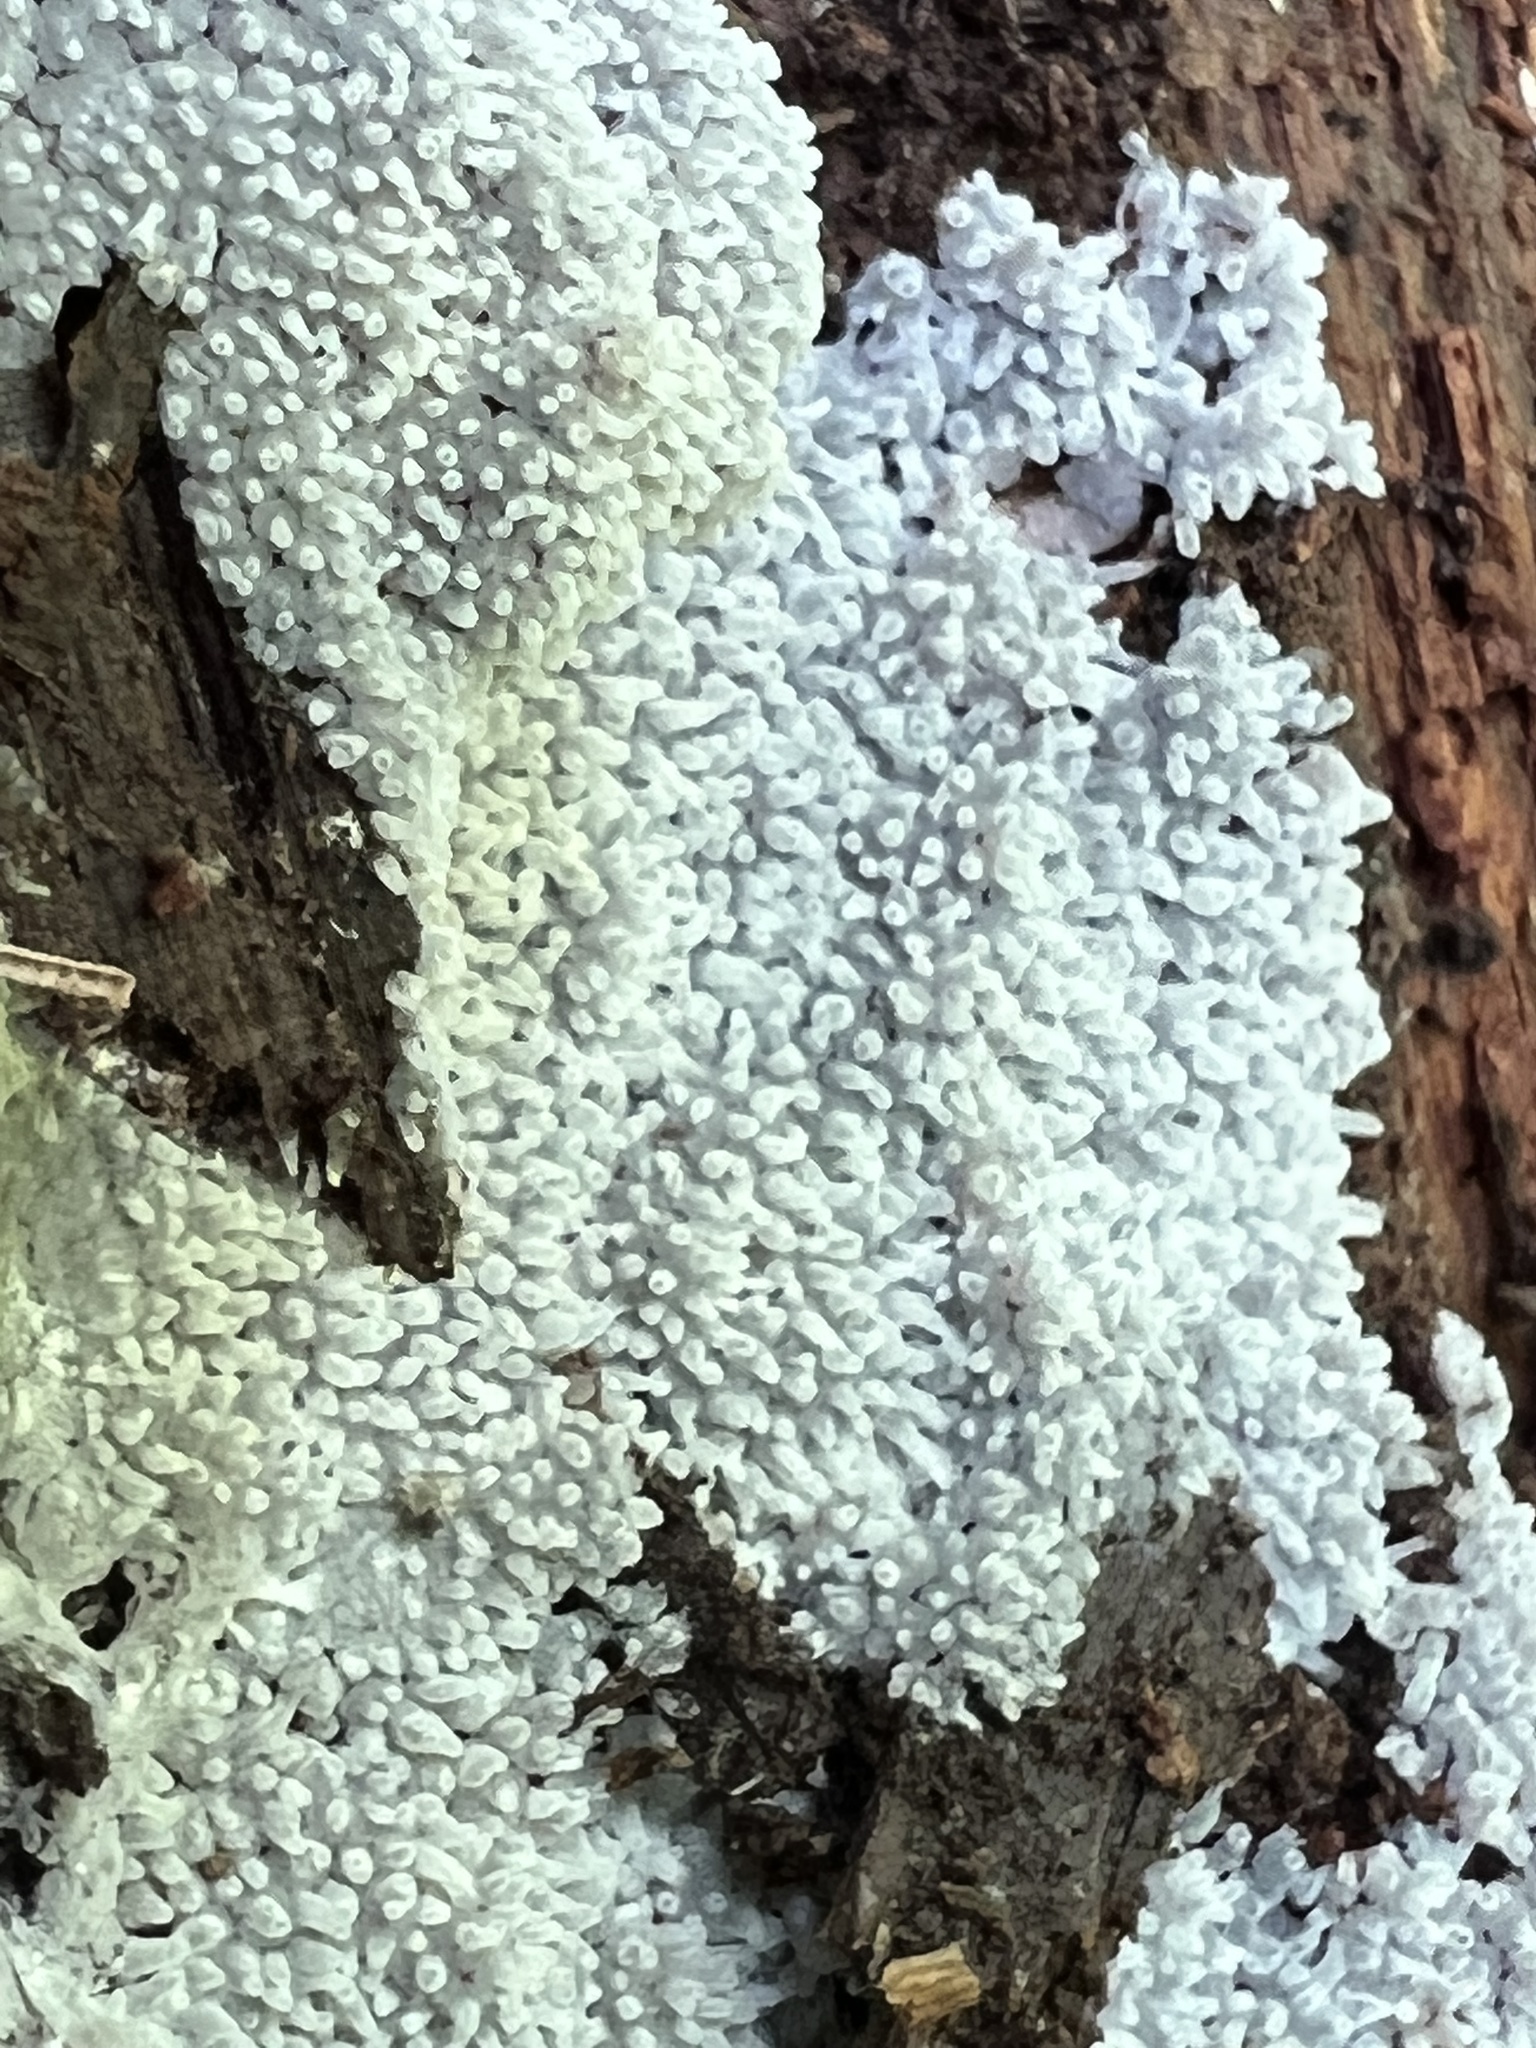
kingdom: Protozoa
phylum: Mycetozoa
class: Protosteliomycetes
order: Ceratiomyxales
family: Ceratiomyxaceae
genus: Ceratiomyxa
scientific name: Ceratiomyxa fruticulosa
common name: Honeycomb coral slime mold
